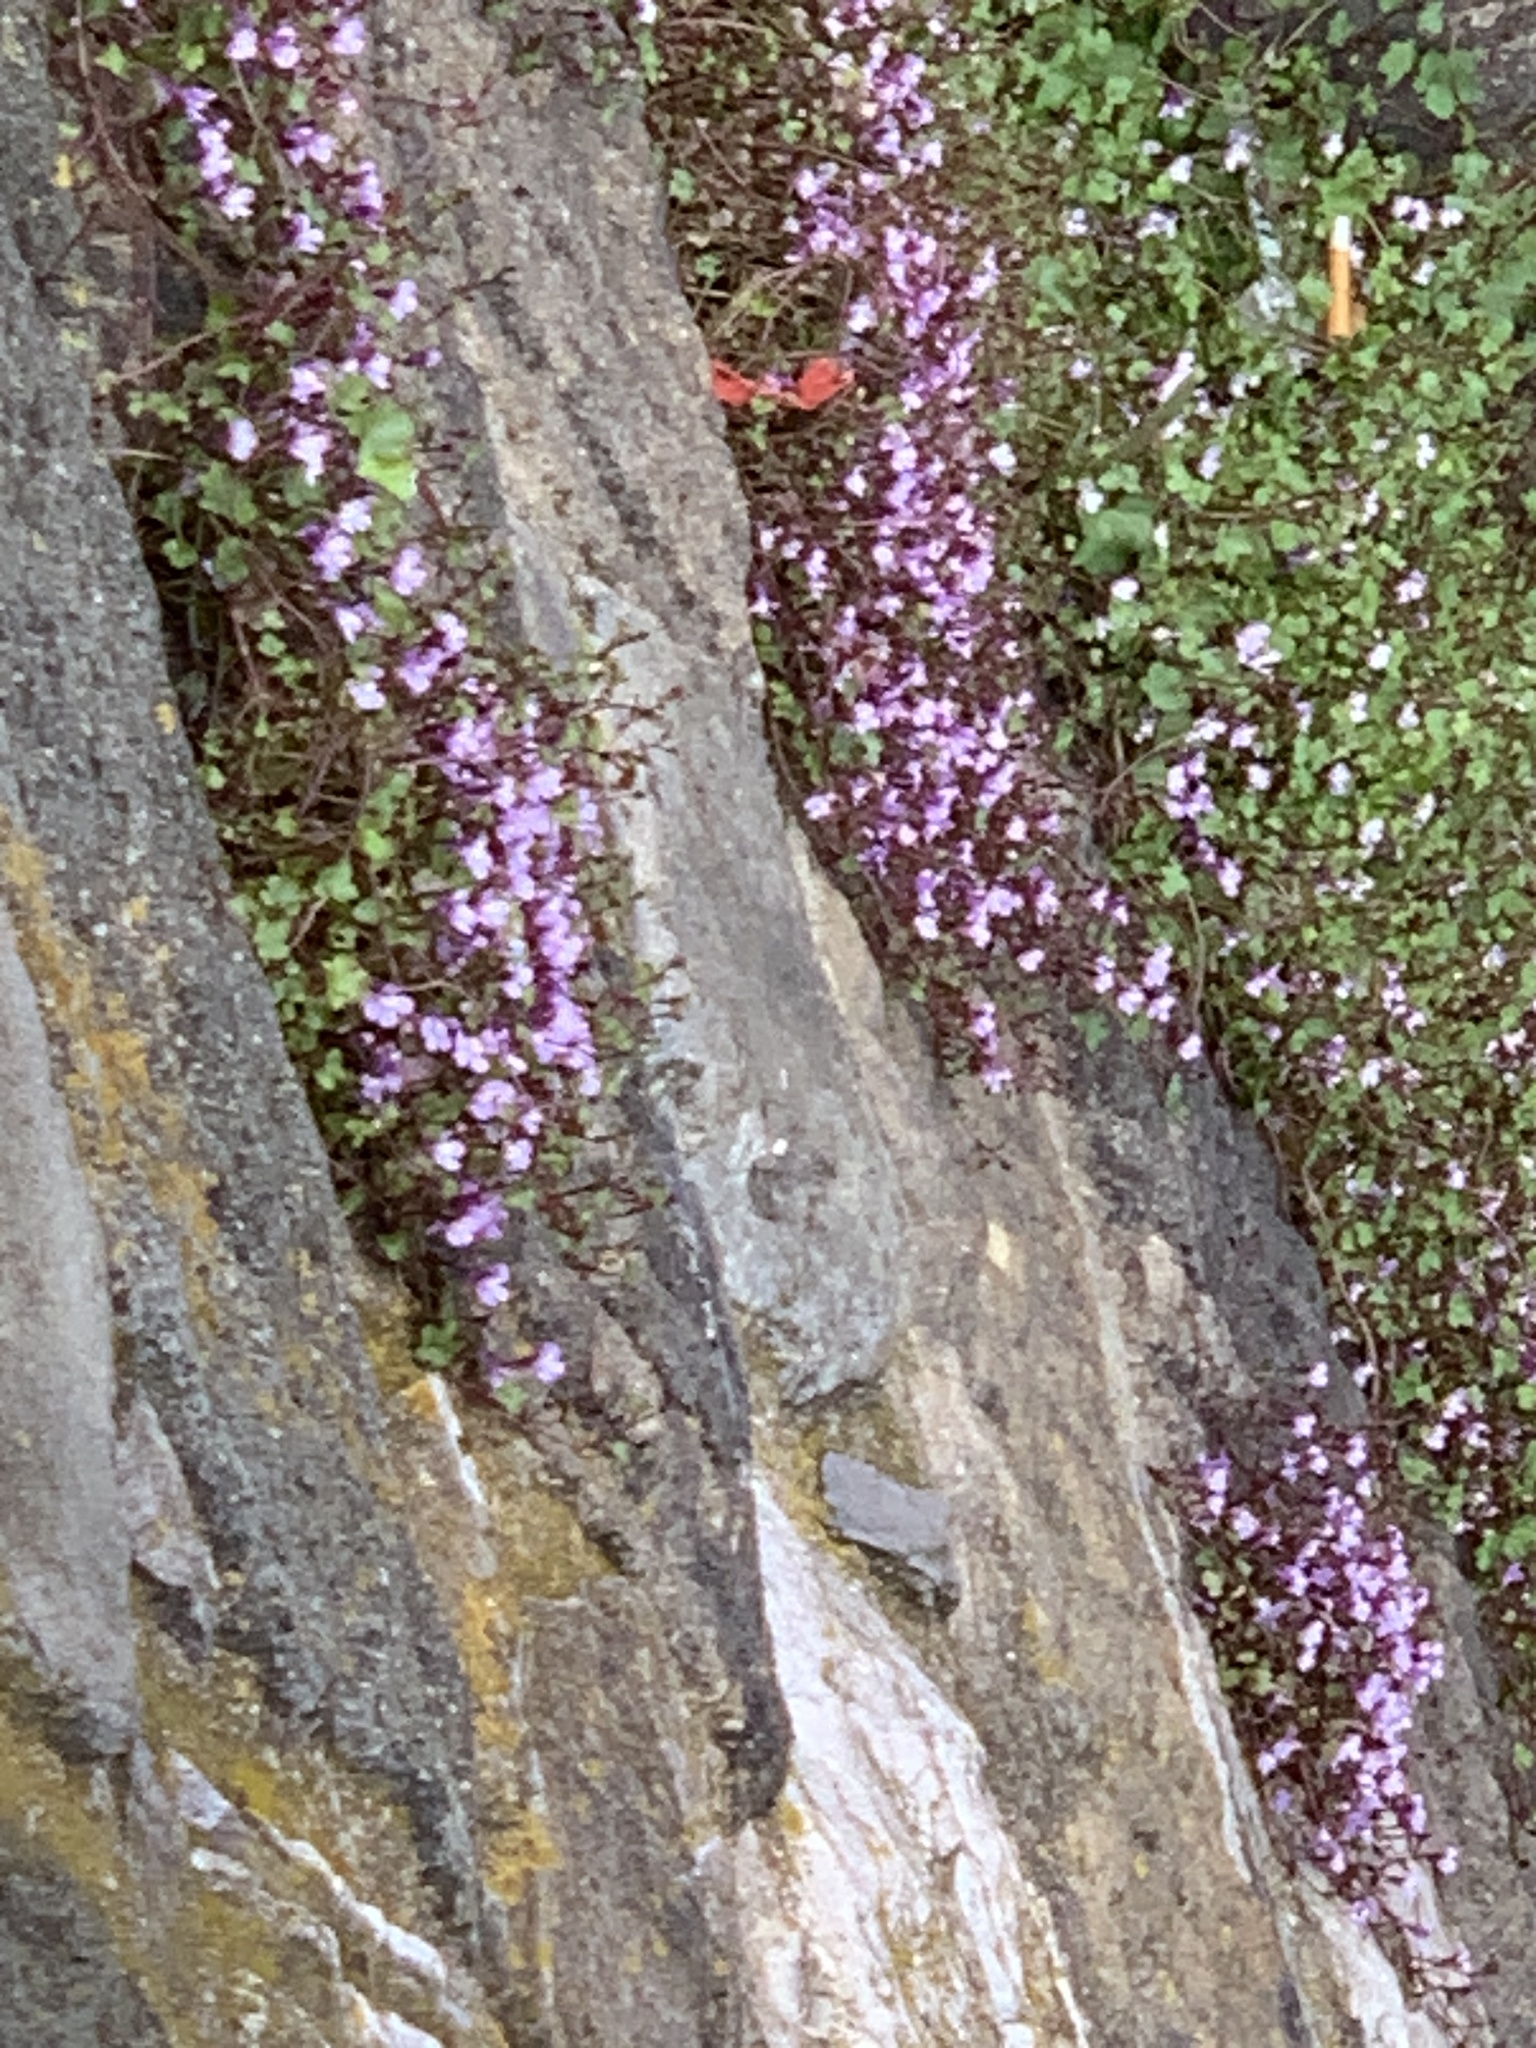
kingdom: Plantae
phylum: Tracheophyta
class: Magnoliopsida
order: Lamiales
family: Plantaginaceae
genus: Cymbalaria
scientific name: Cymbalaria muralis
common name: Ivy-leaved toadflax
